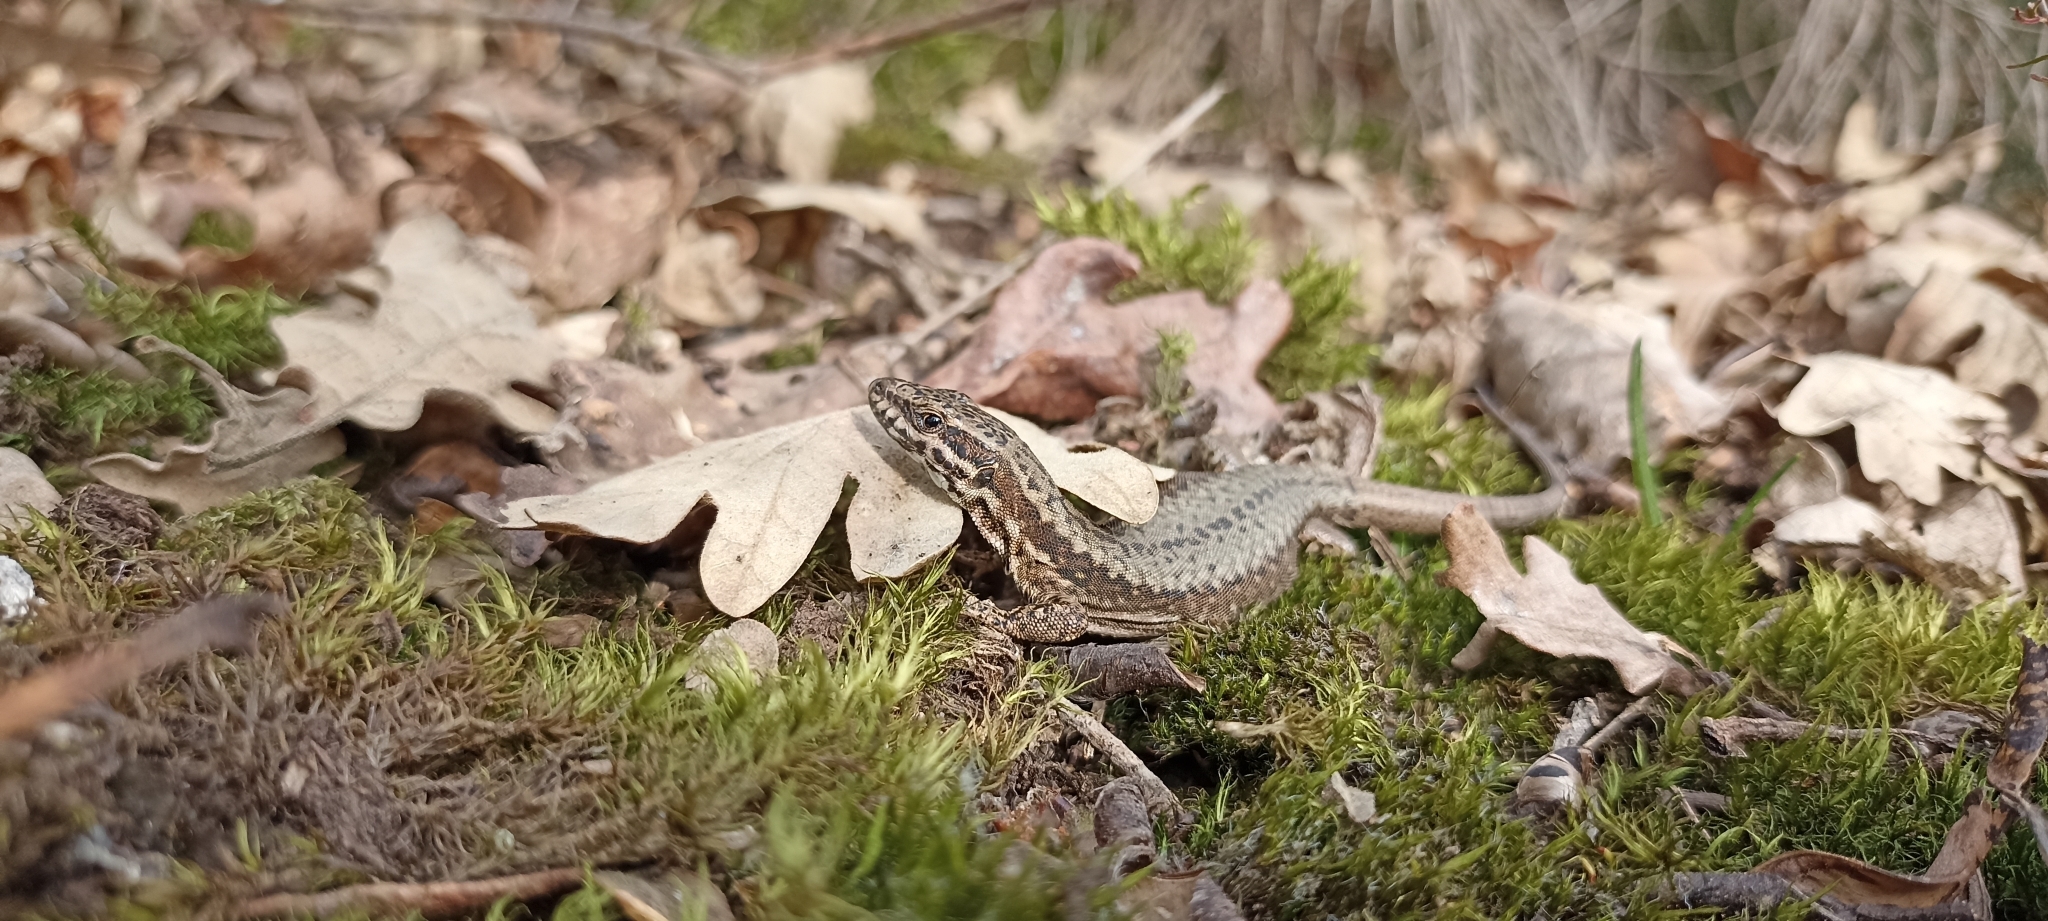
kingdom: Animalia
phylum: Chordata
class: Squamata
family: Lacertidae
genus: Podarcis
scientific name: Podarcis muralis
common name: Common wall lizard
